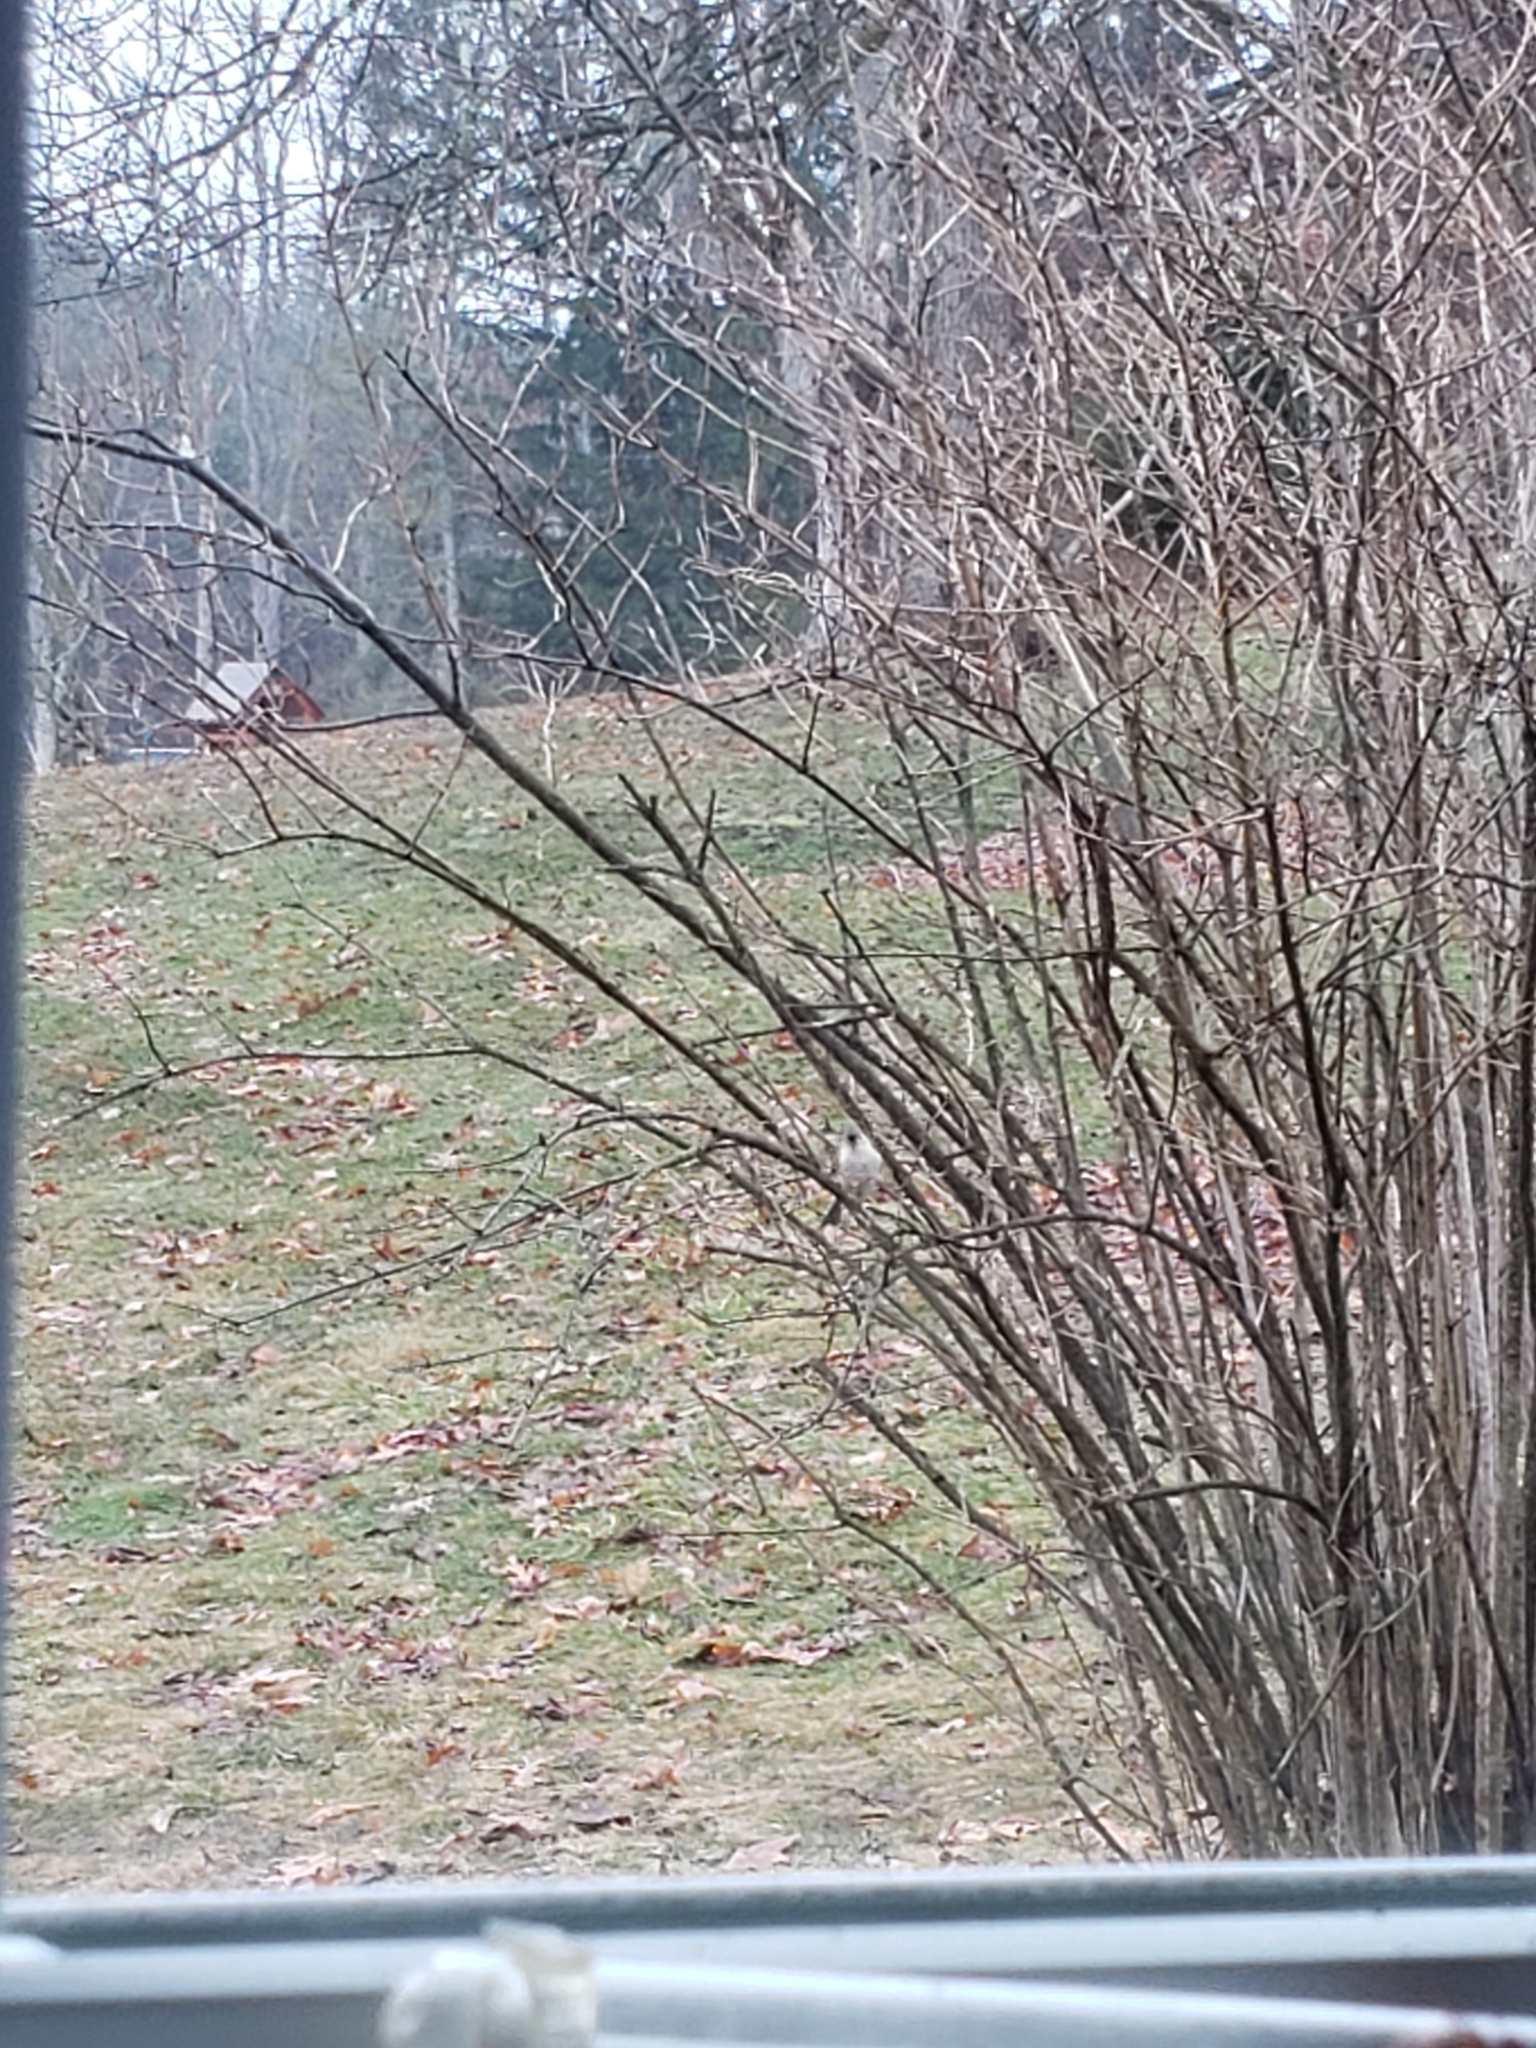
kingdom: Animalia
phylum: Chordata
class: Aves
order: Passeriformes
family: Paridae
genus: Baeolophus
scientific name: Baeolophus bicolor
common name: Tufted titmouse
